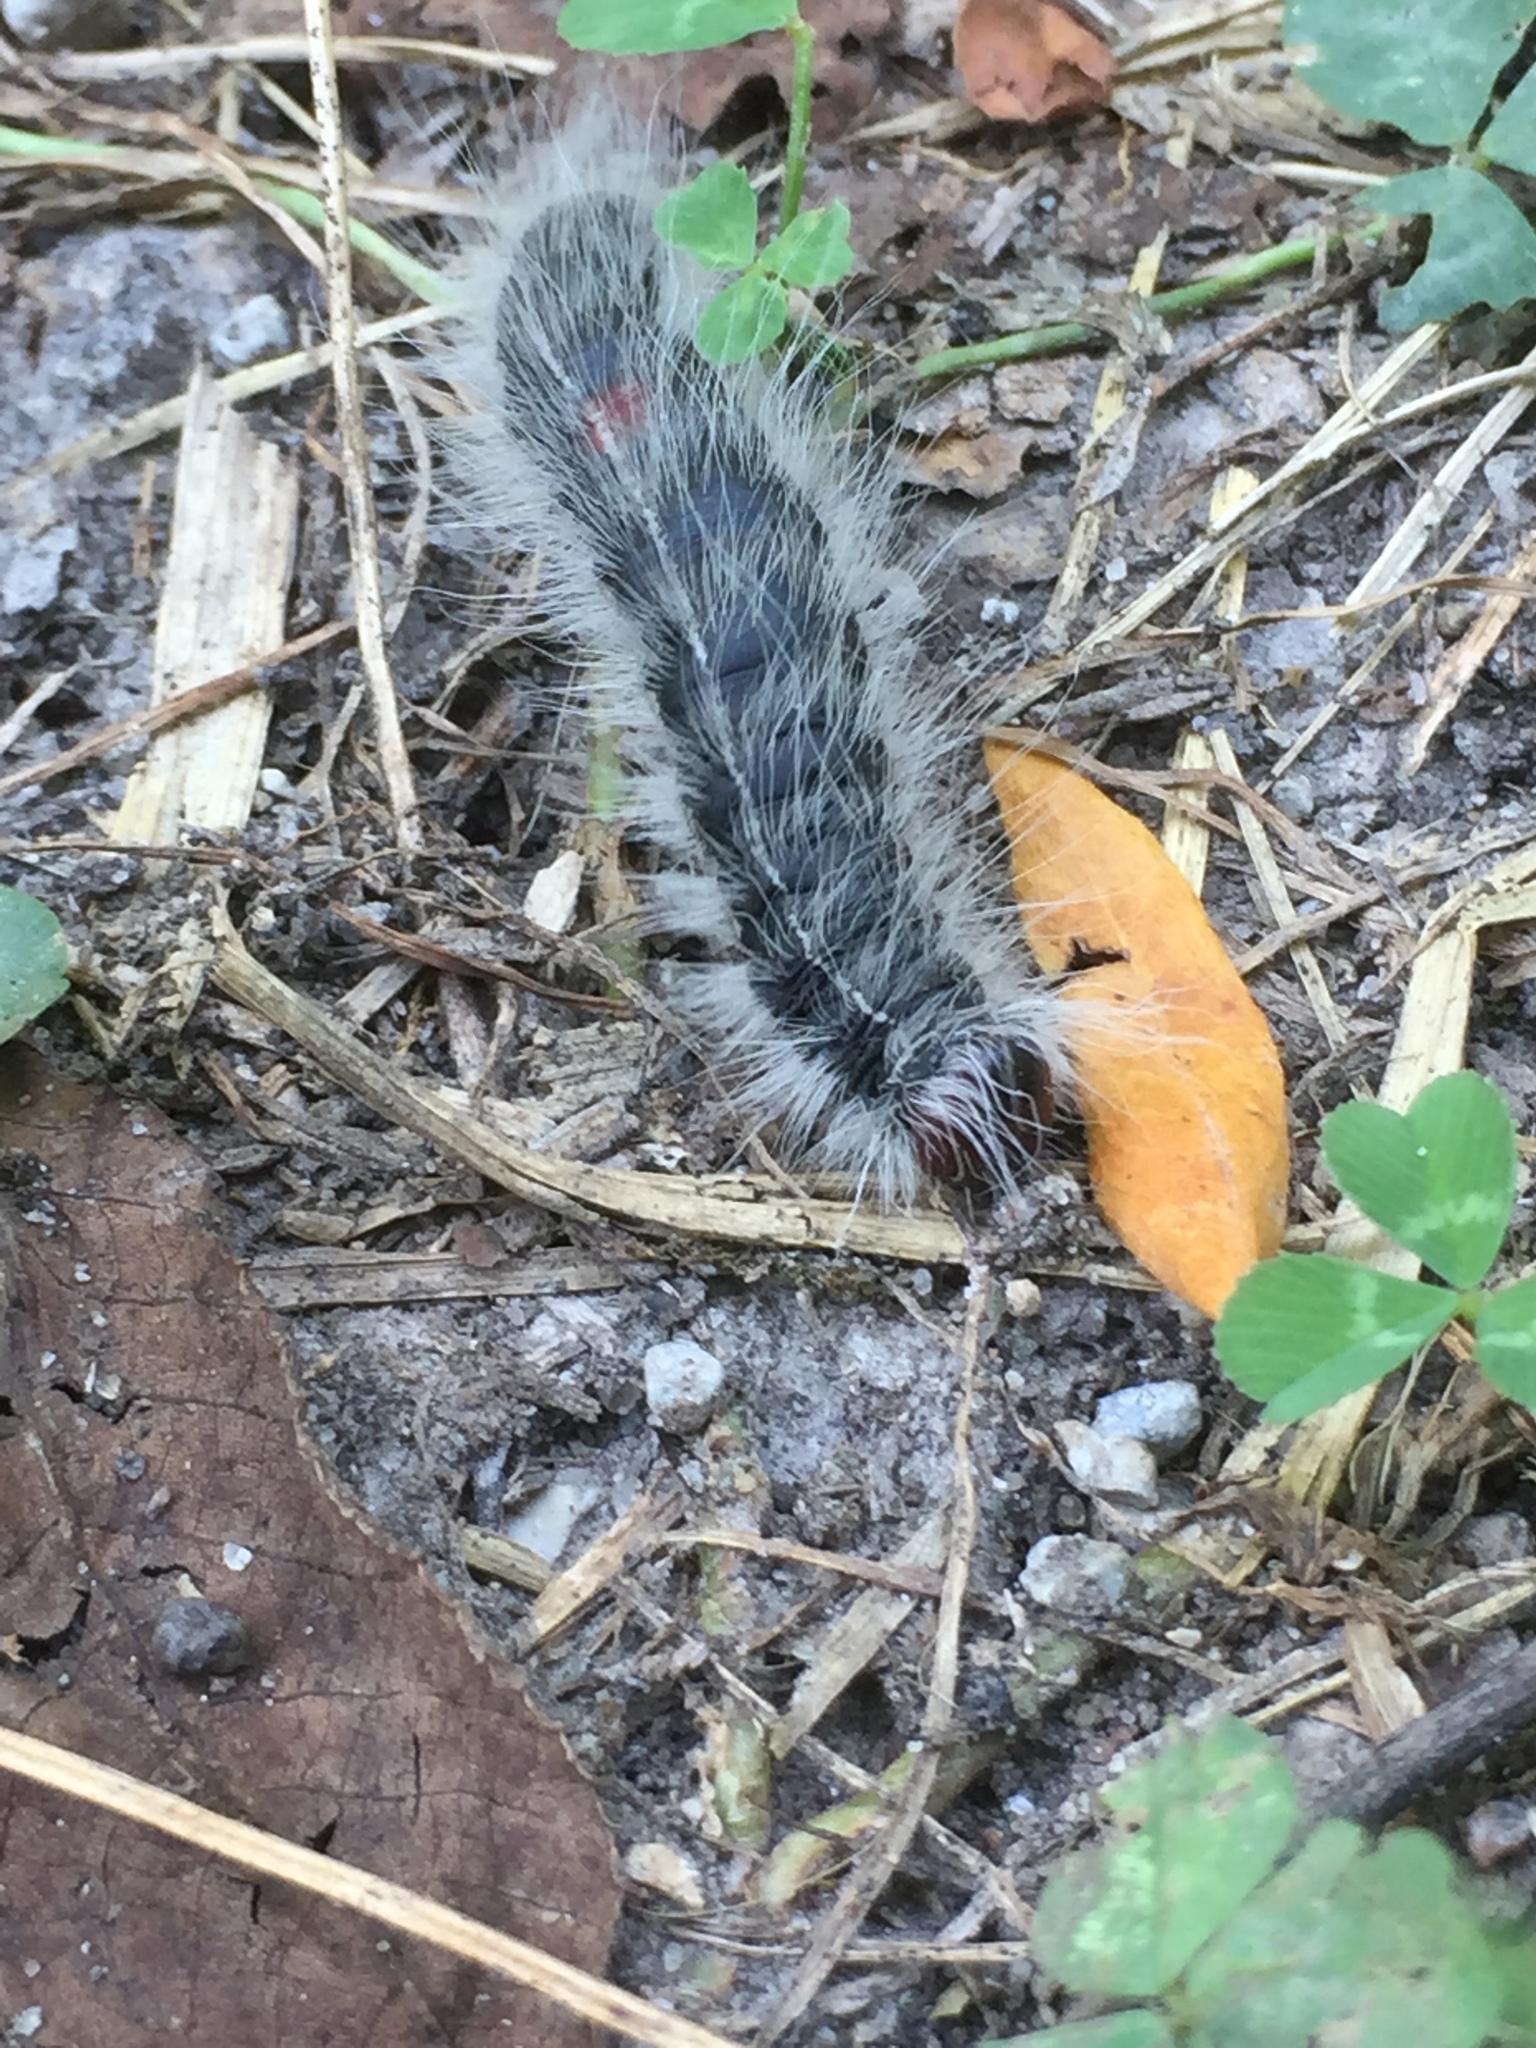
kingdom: Animalia
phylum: Arthropoda
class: Insecta
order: Lepidoptera
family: Notodontidae
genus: Datana
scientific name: Datana integerrima
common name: Walnut caterpillar
